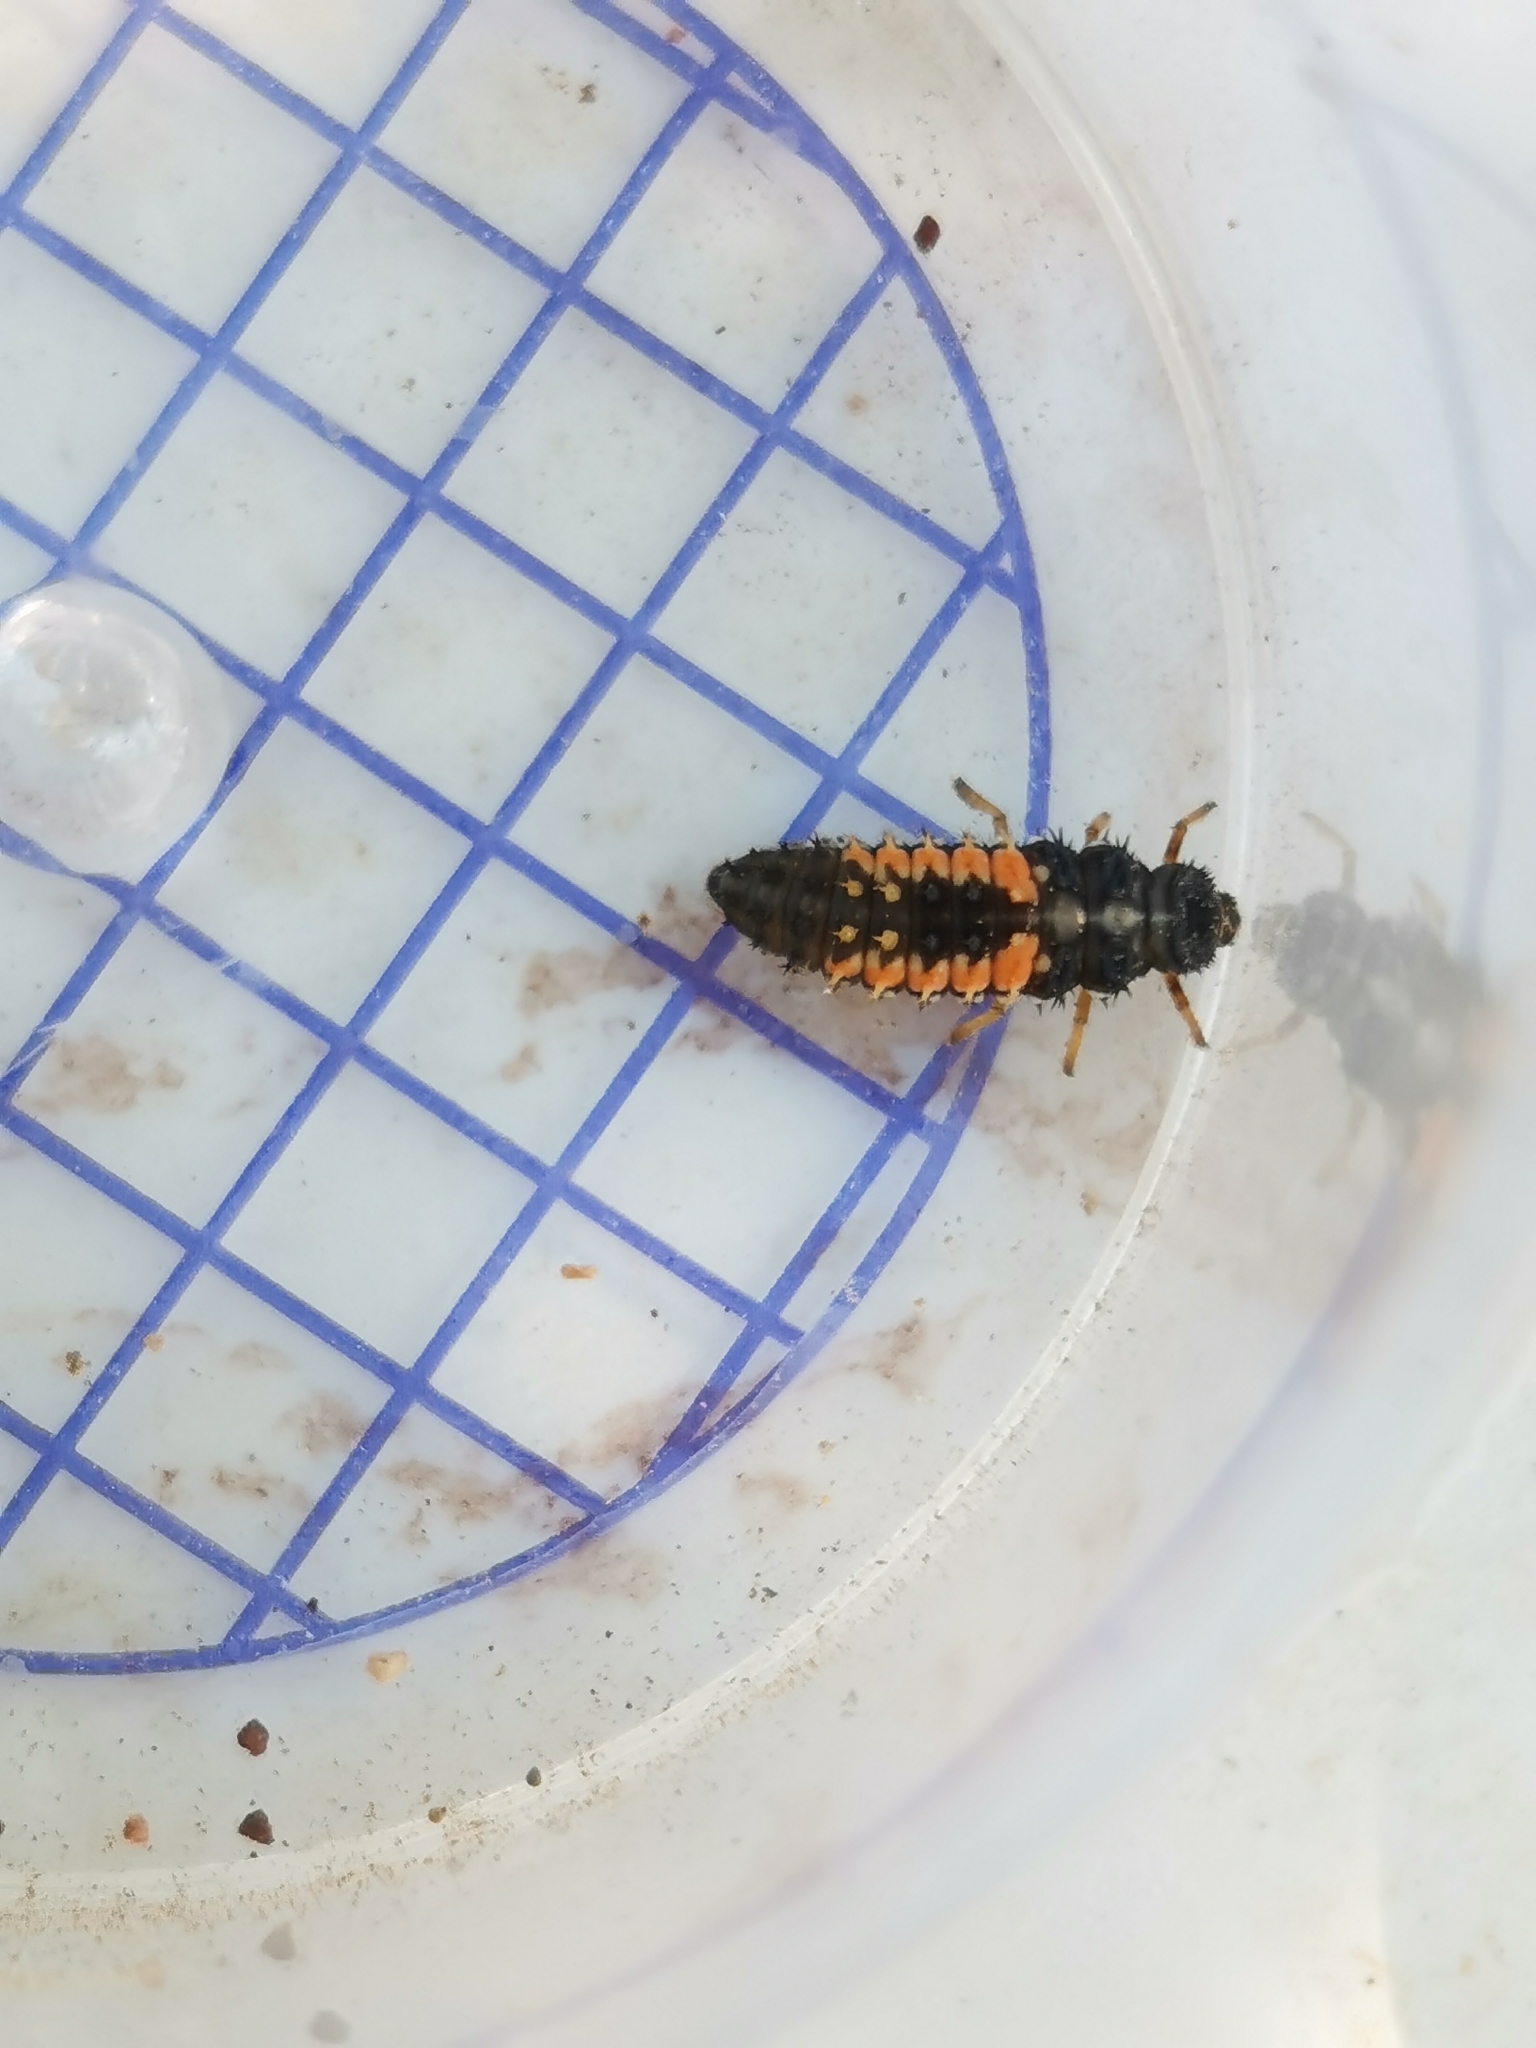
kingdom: Animalia
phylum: Arthropoda
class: Insecta
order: Coleoptera
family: Coccinellidae
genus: Harmonia
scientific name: Harmonia axyridis
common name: Harlequin ladybird
